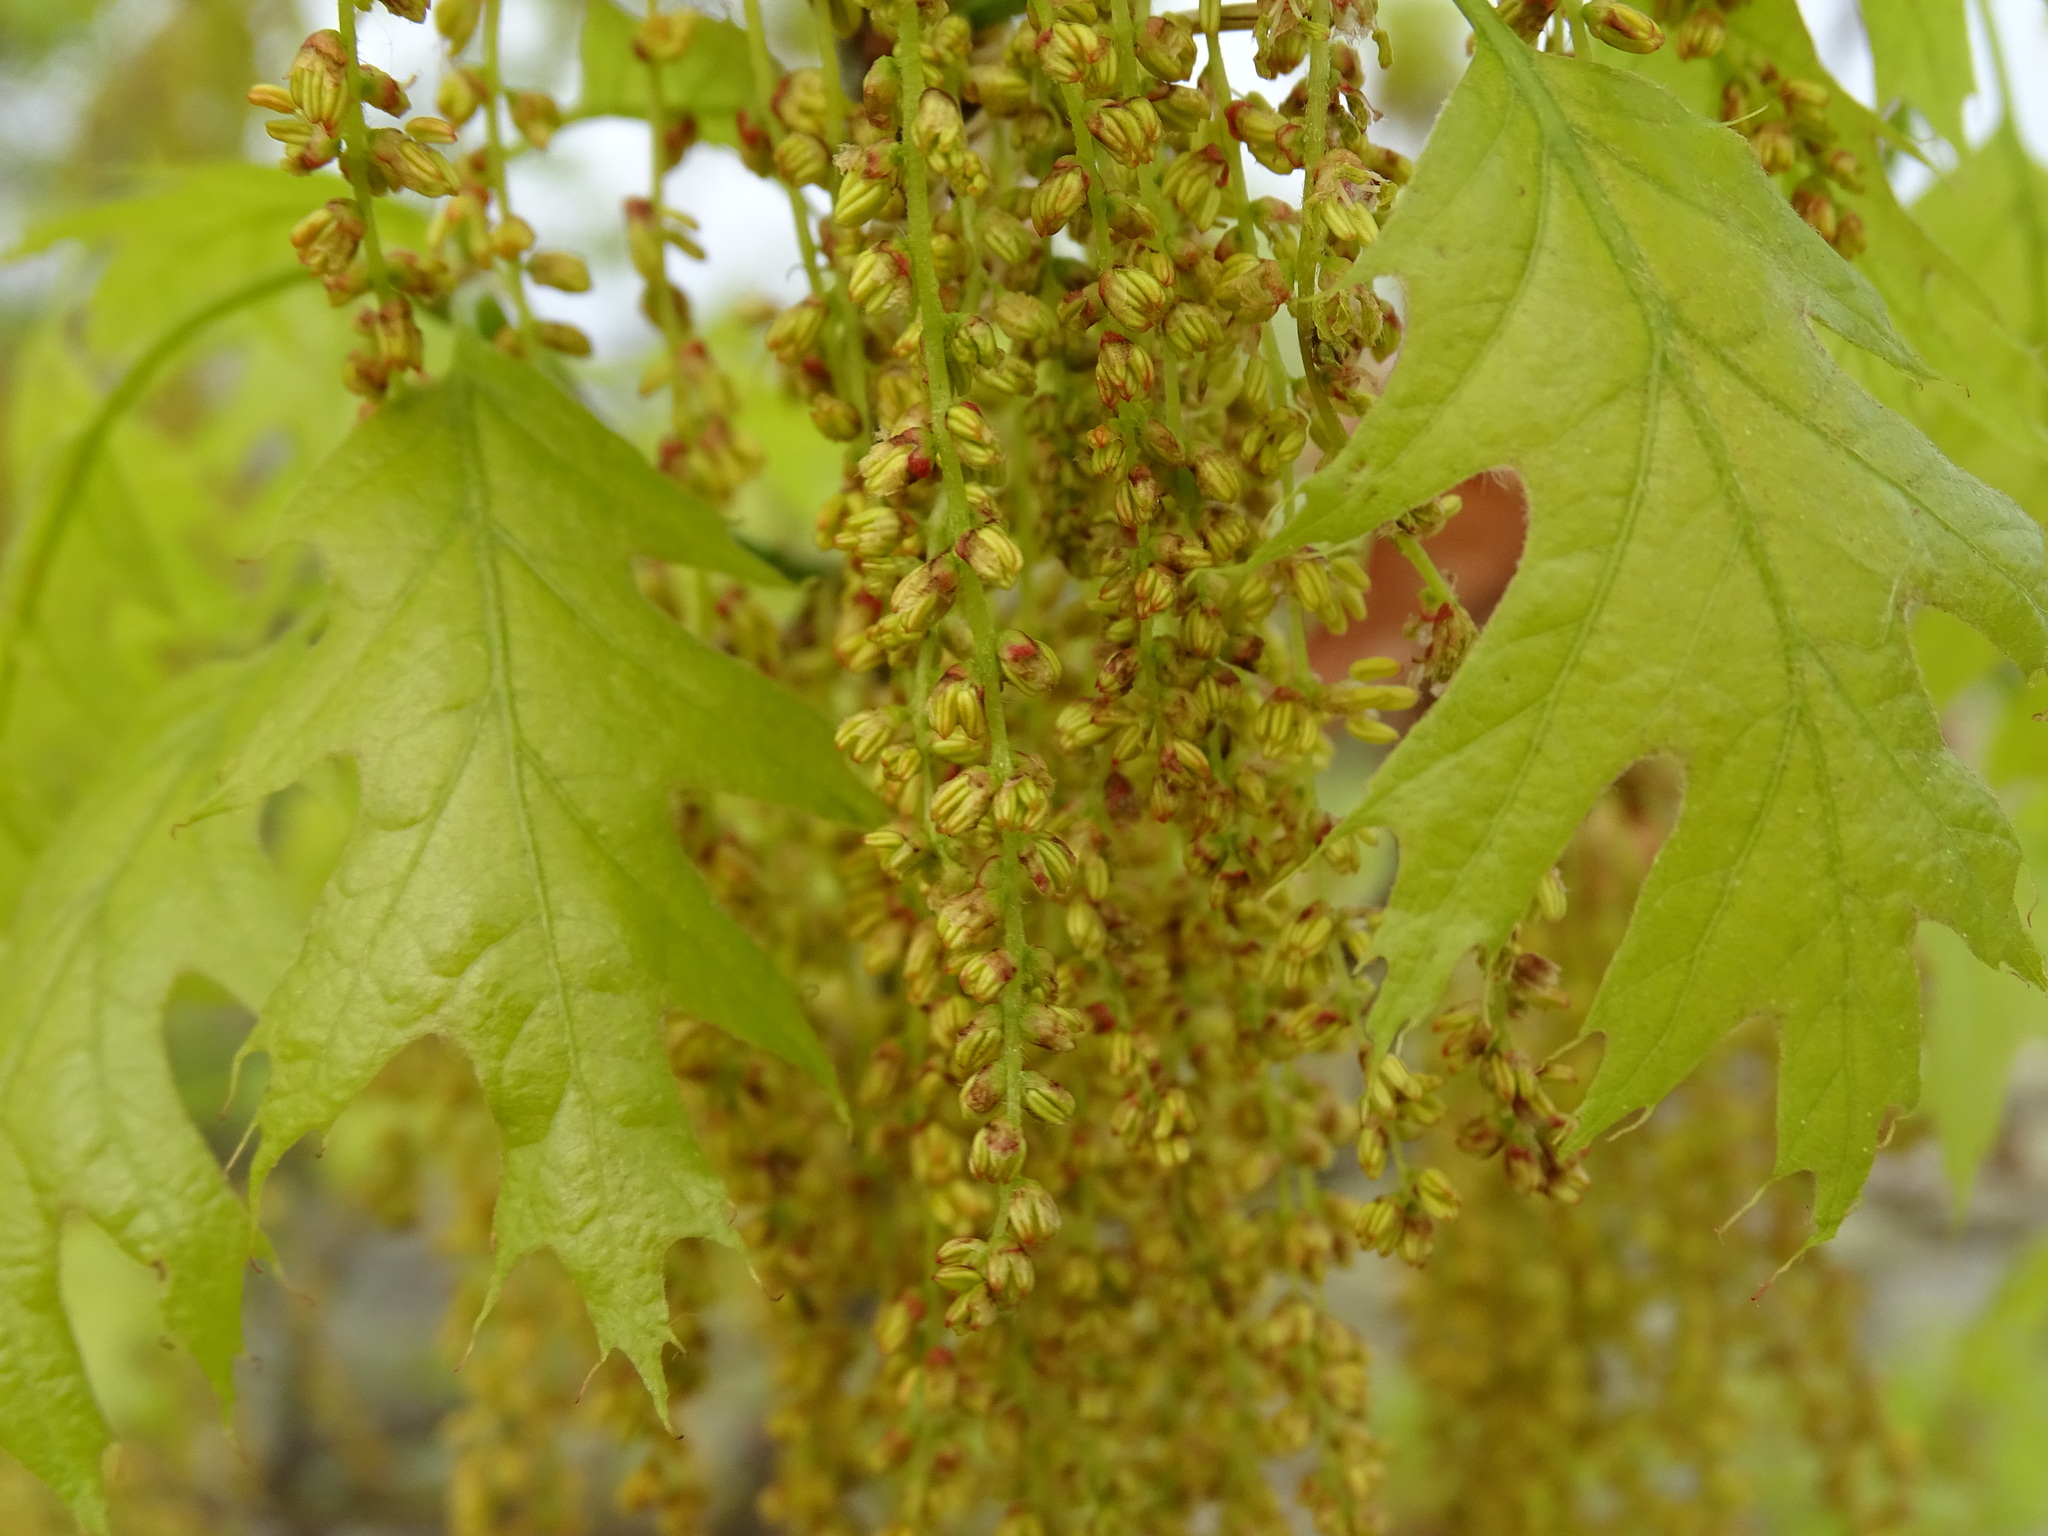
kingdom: Plantae
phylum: Tracheophyta
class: Magnoliopsida
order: Fagales
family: Fagaceae
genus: Quercus
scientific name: Quercus rubra
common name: Red oak
